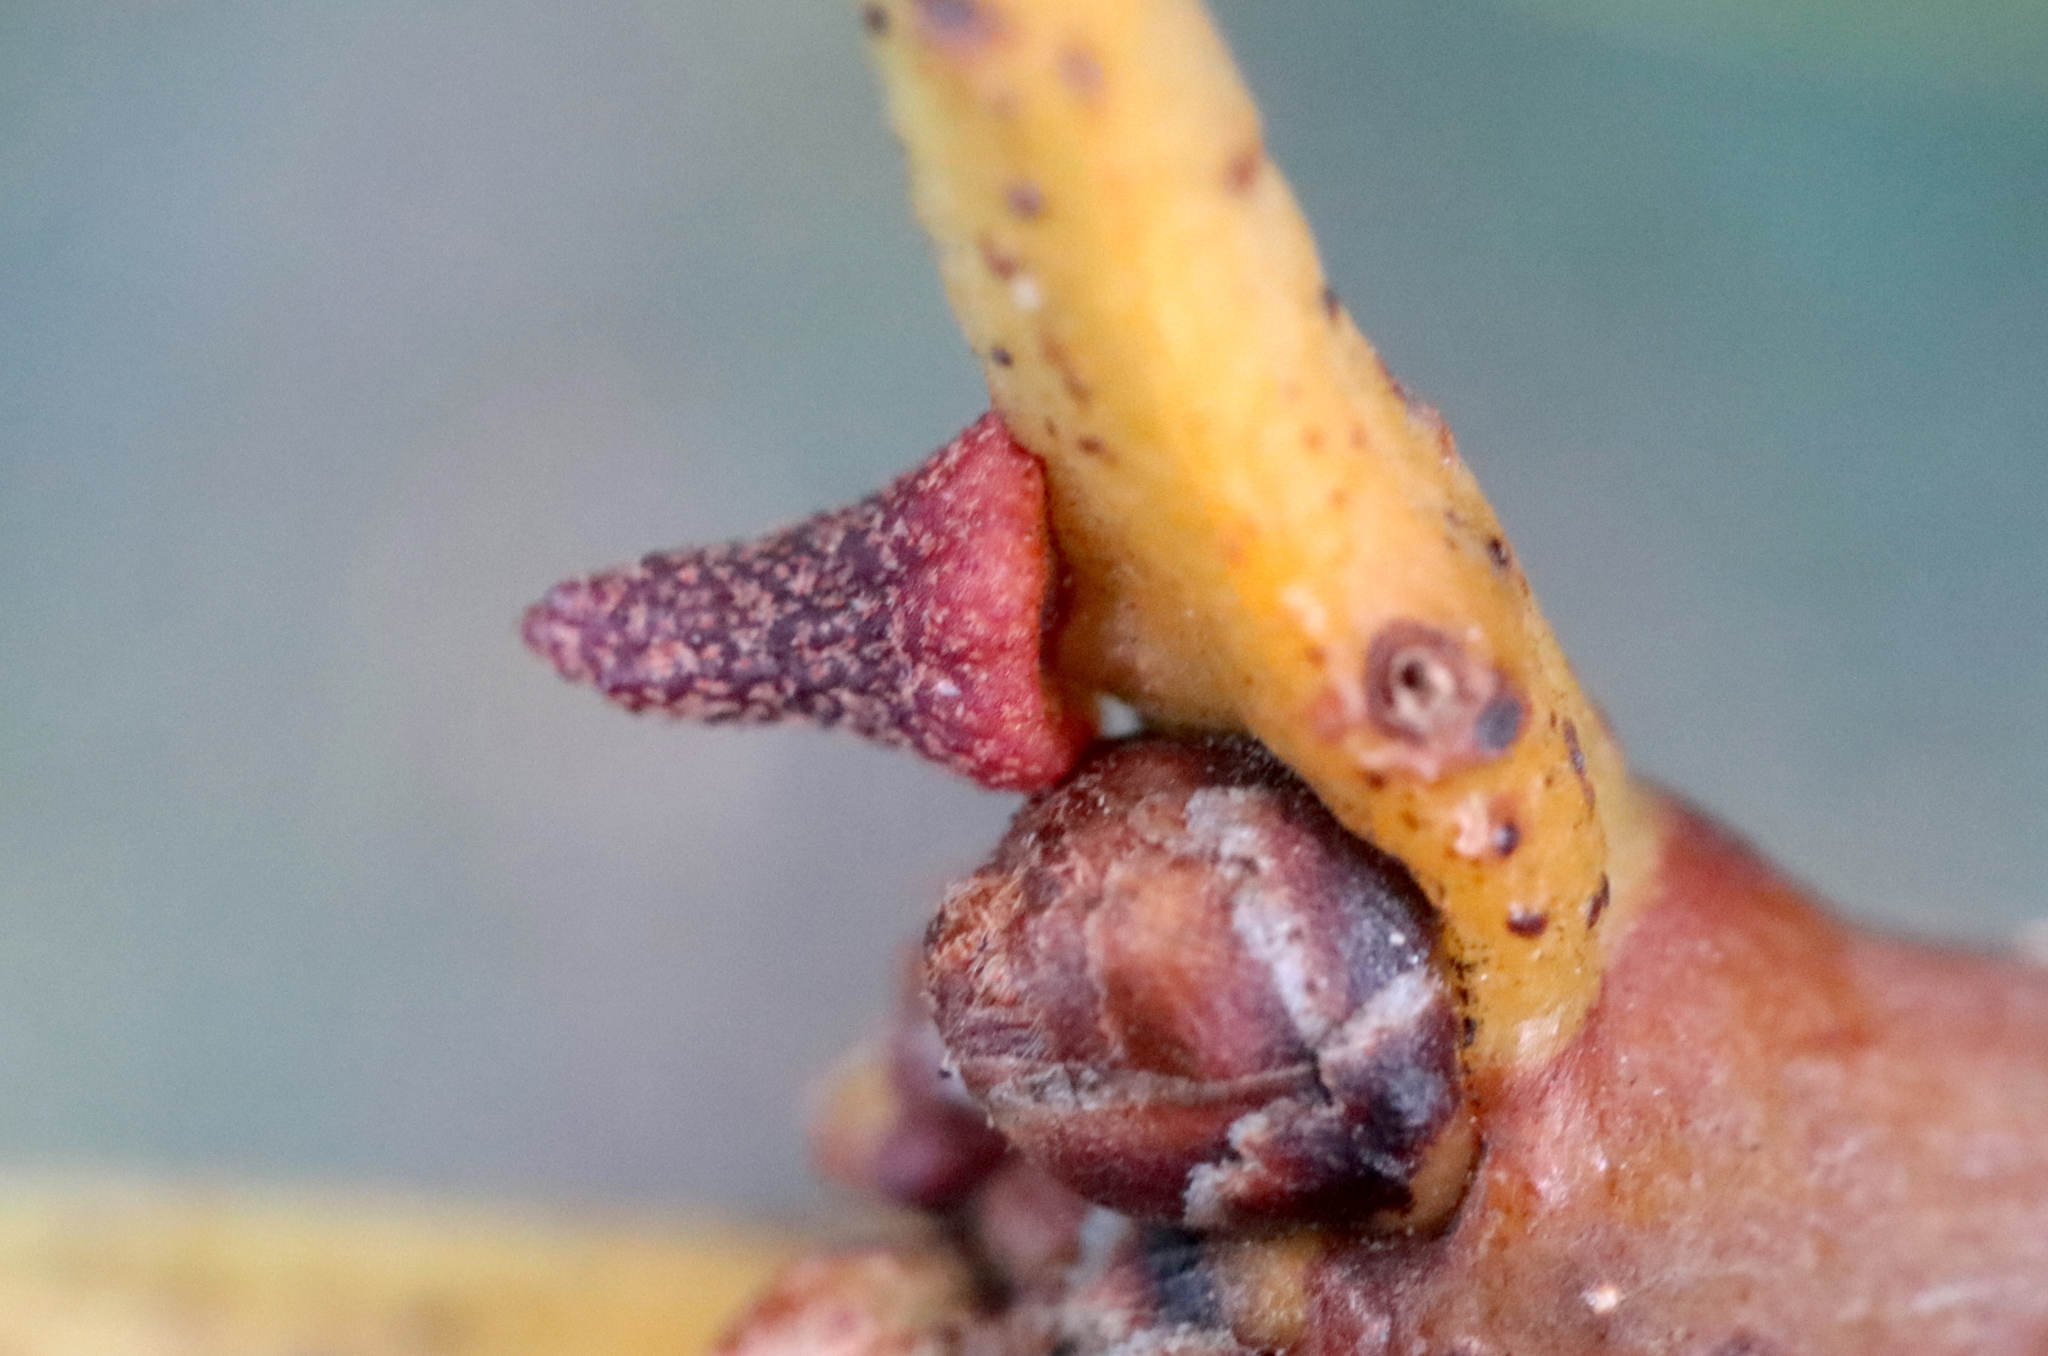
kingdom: Animalia
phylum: Arthropoda
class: Insecta
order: Hymenoptera
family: Cynipidae
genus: Zopheroteras
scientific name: Zopheroteras
